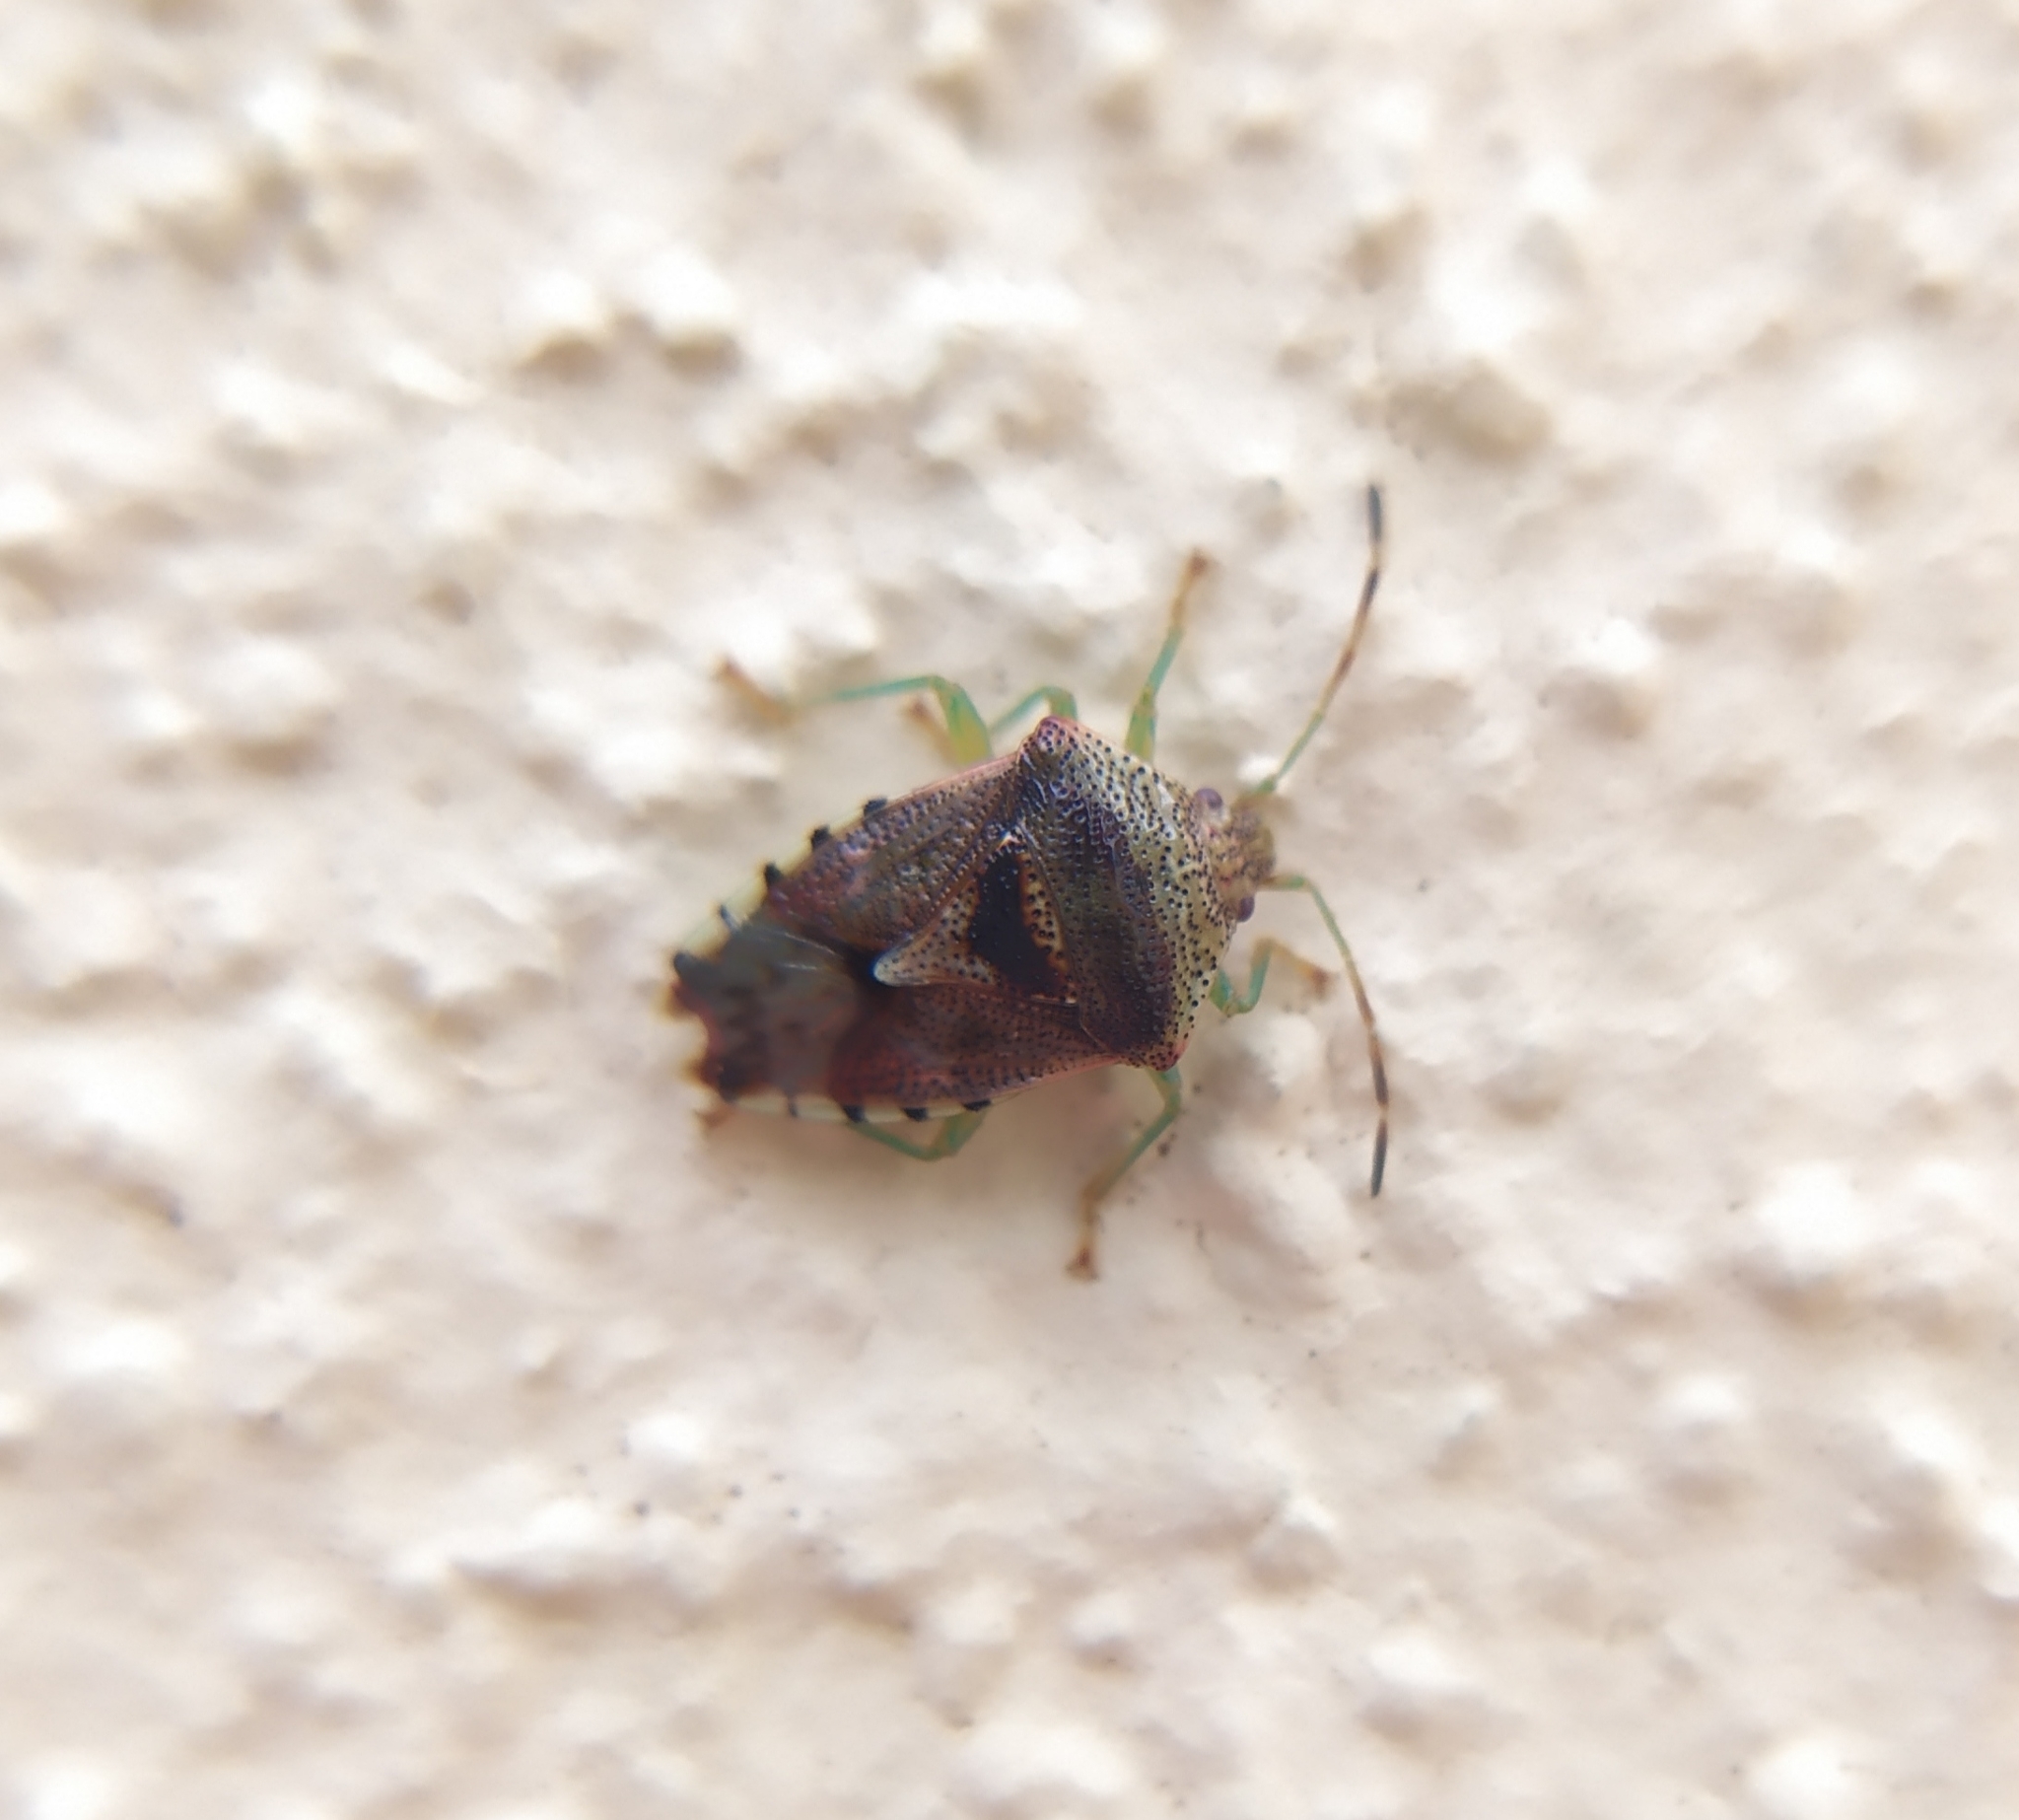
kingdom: Animalia
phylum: Arthropoda
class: Insecta
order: Hemiptera
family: Acanthosomatidae
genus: Elasmucha
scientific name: Elasmucha grisea
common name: Parent bug
